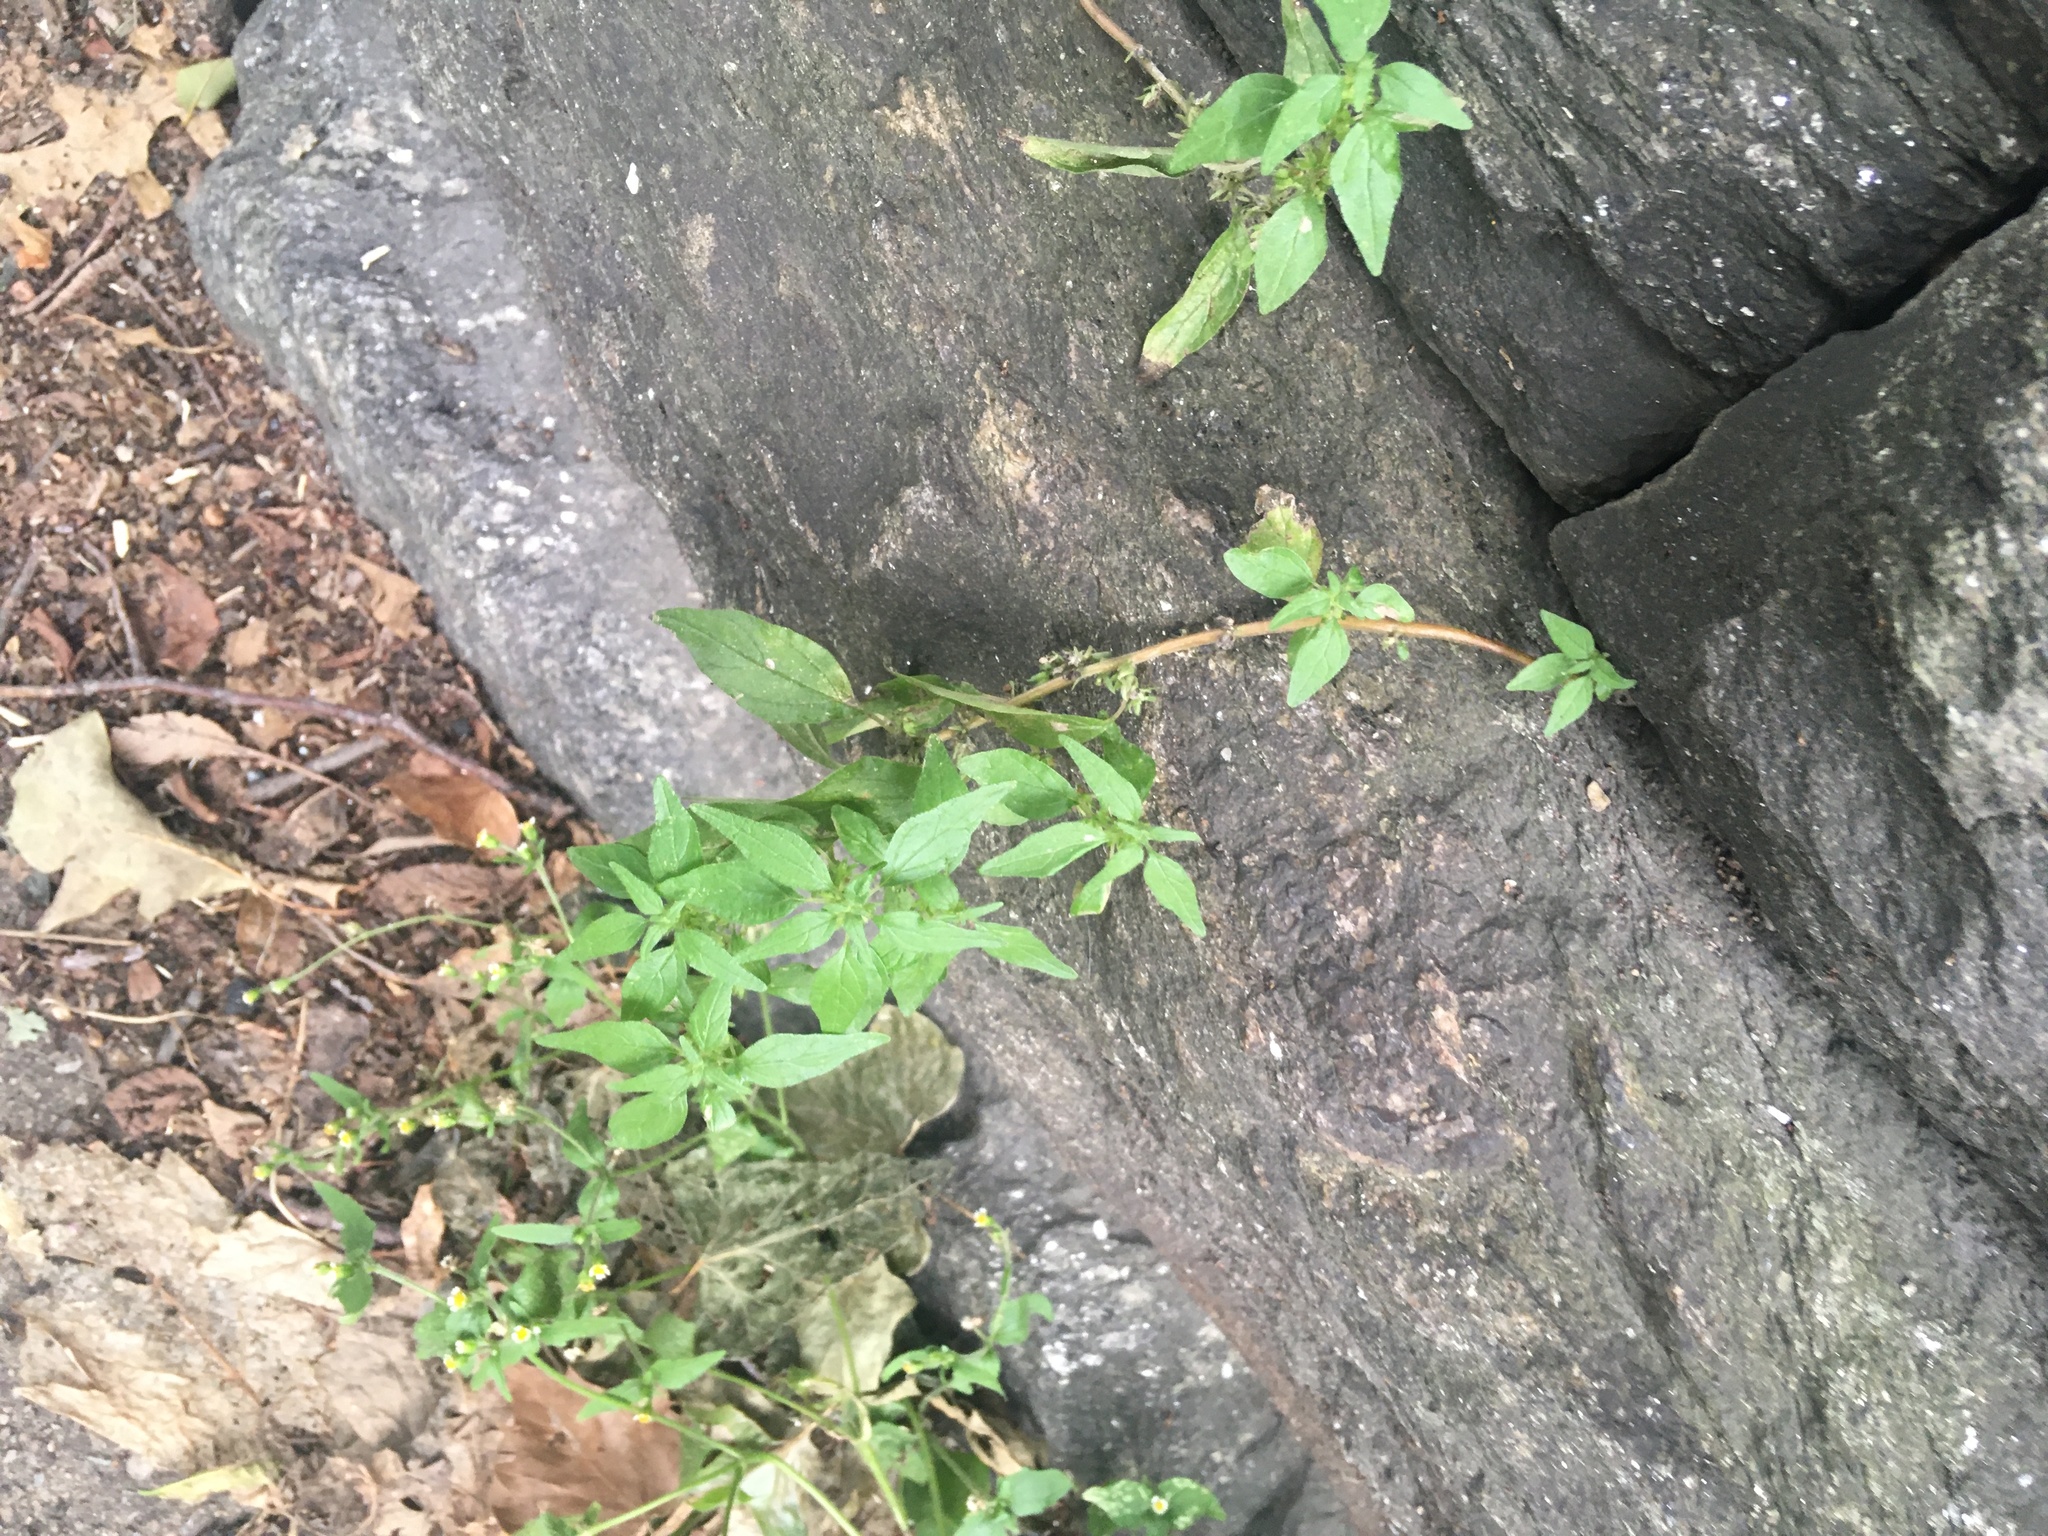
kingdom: Plantae
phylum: Tracheophyta
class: Magnoliopsida
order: Rosales
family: Urticaceae
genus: Parietaria
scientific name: Parietaria pensylvanica
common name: Pennsylvania pellitory
